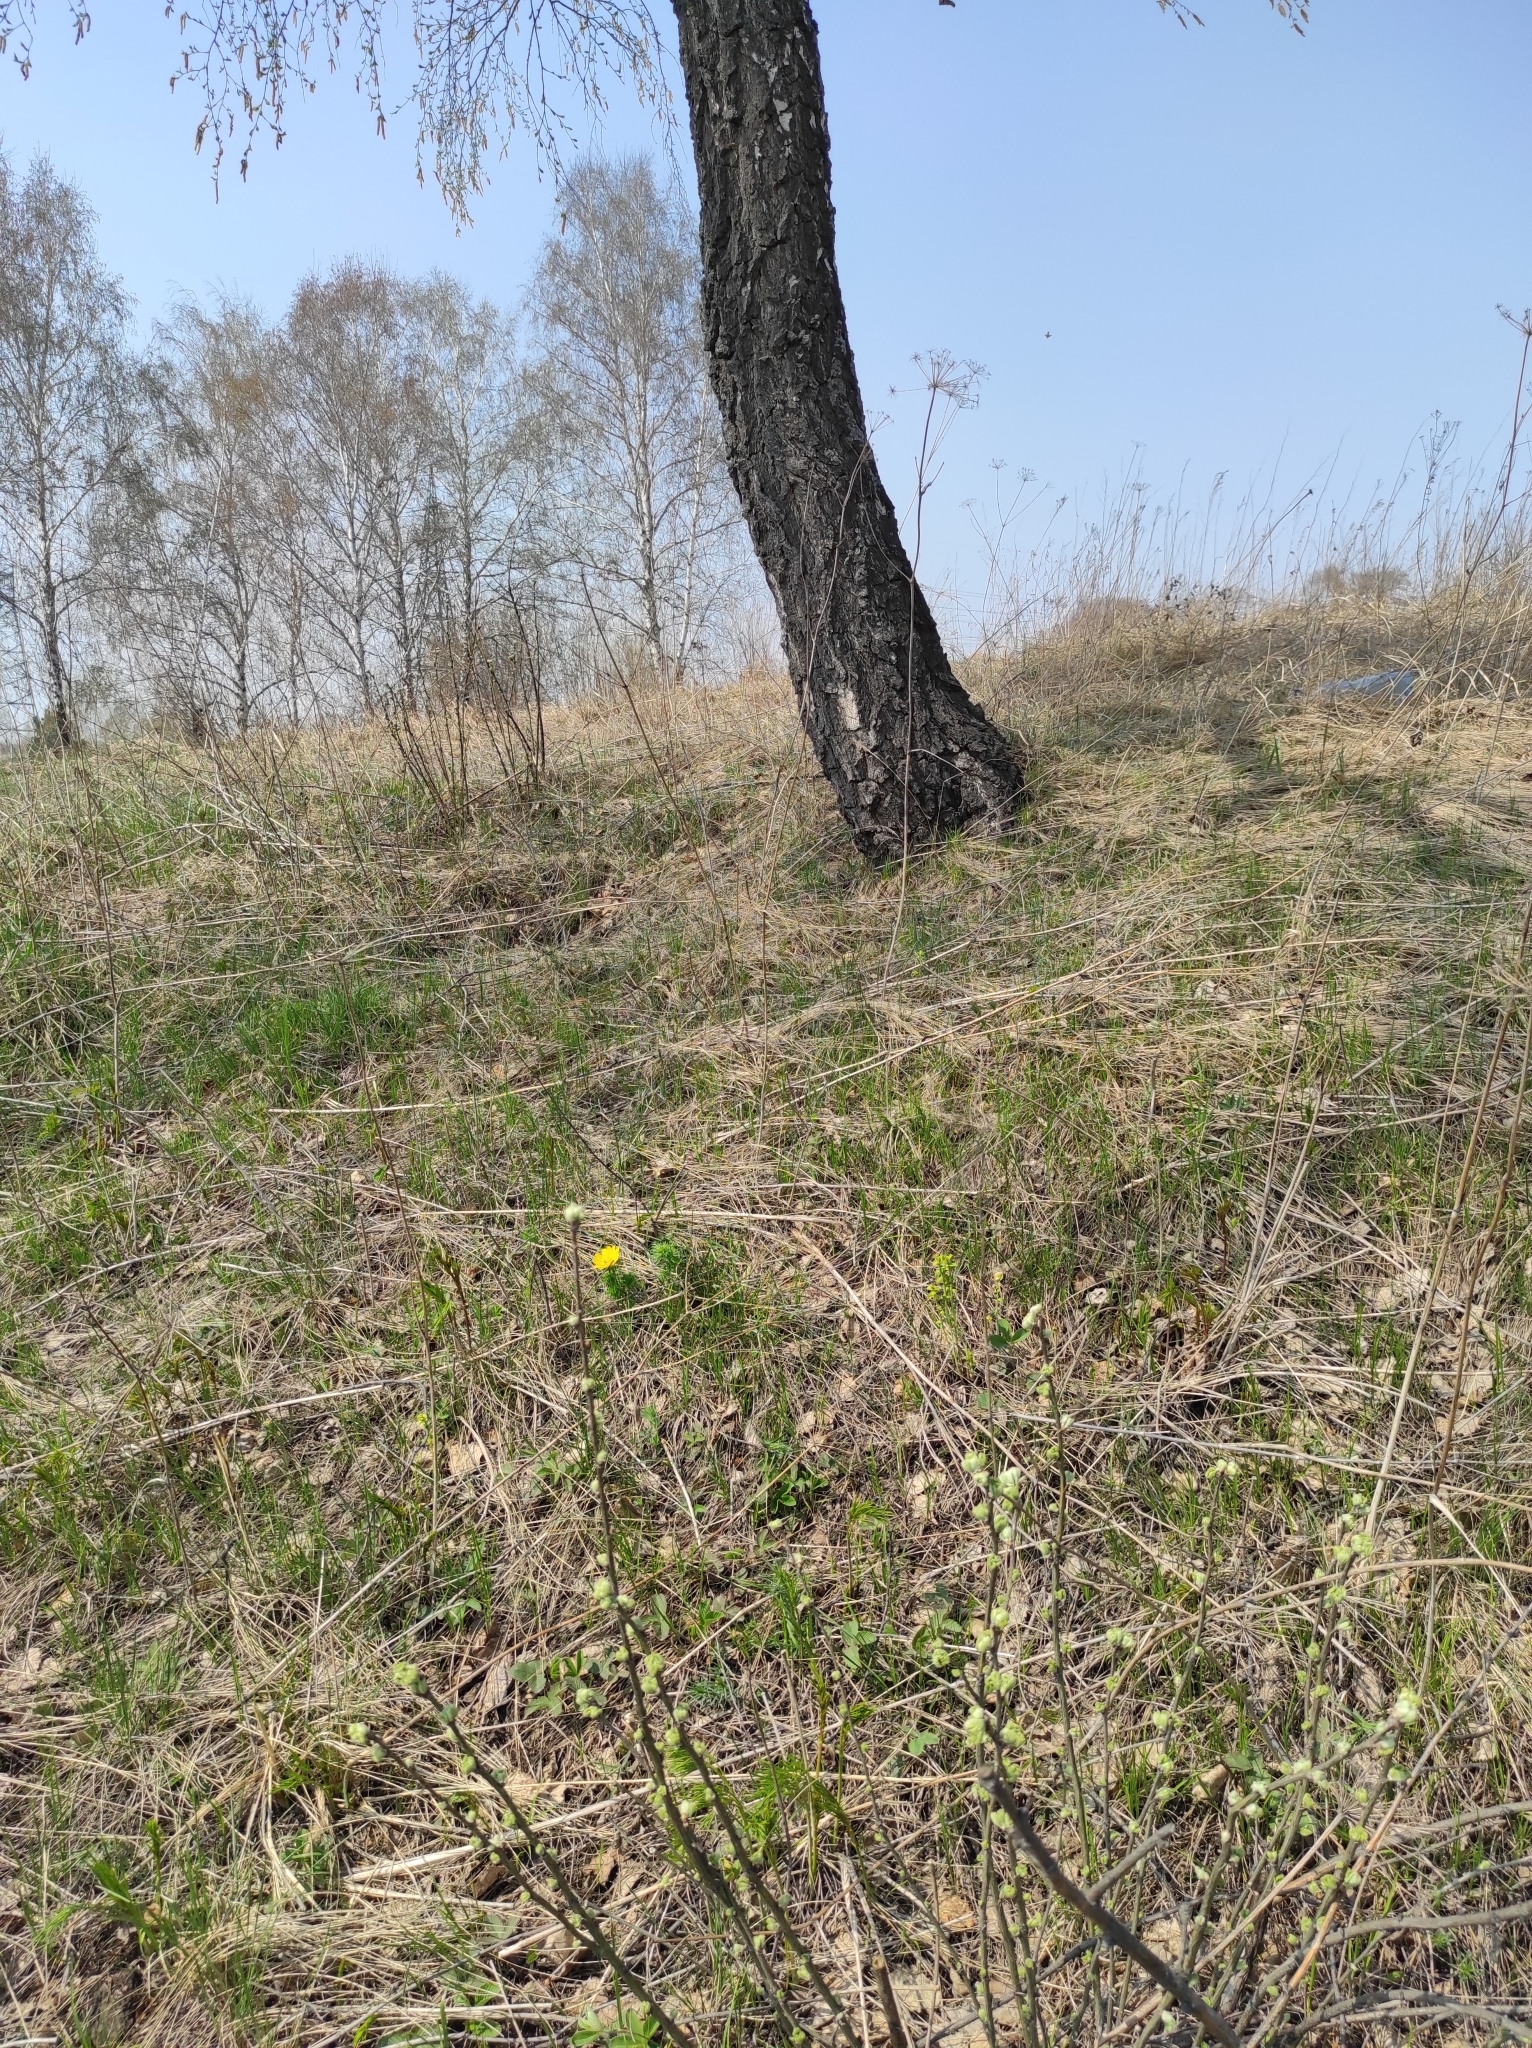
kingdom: Plantae
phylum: Tracheophyta
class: Magnoliopsida
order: Ranunculales
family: Ranunculaceae
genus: Adonis
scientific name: Adonis vernalis
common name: Yellow pheasants-eye
